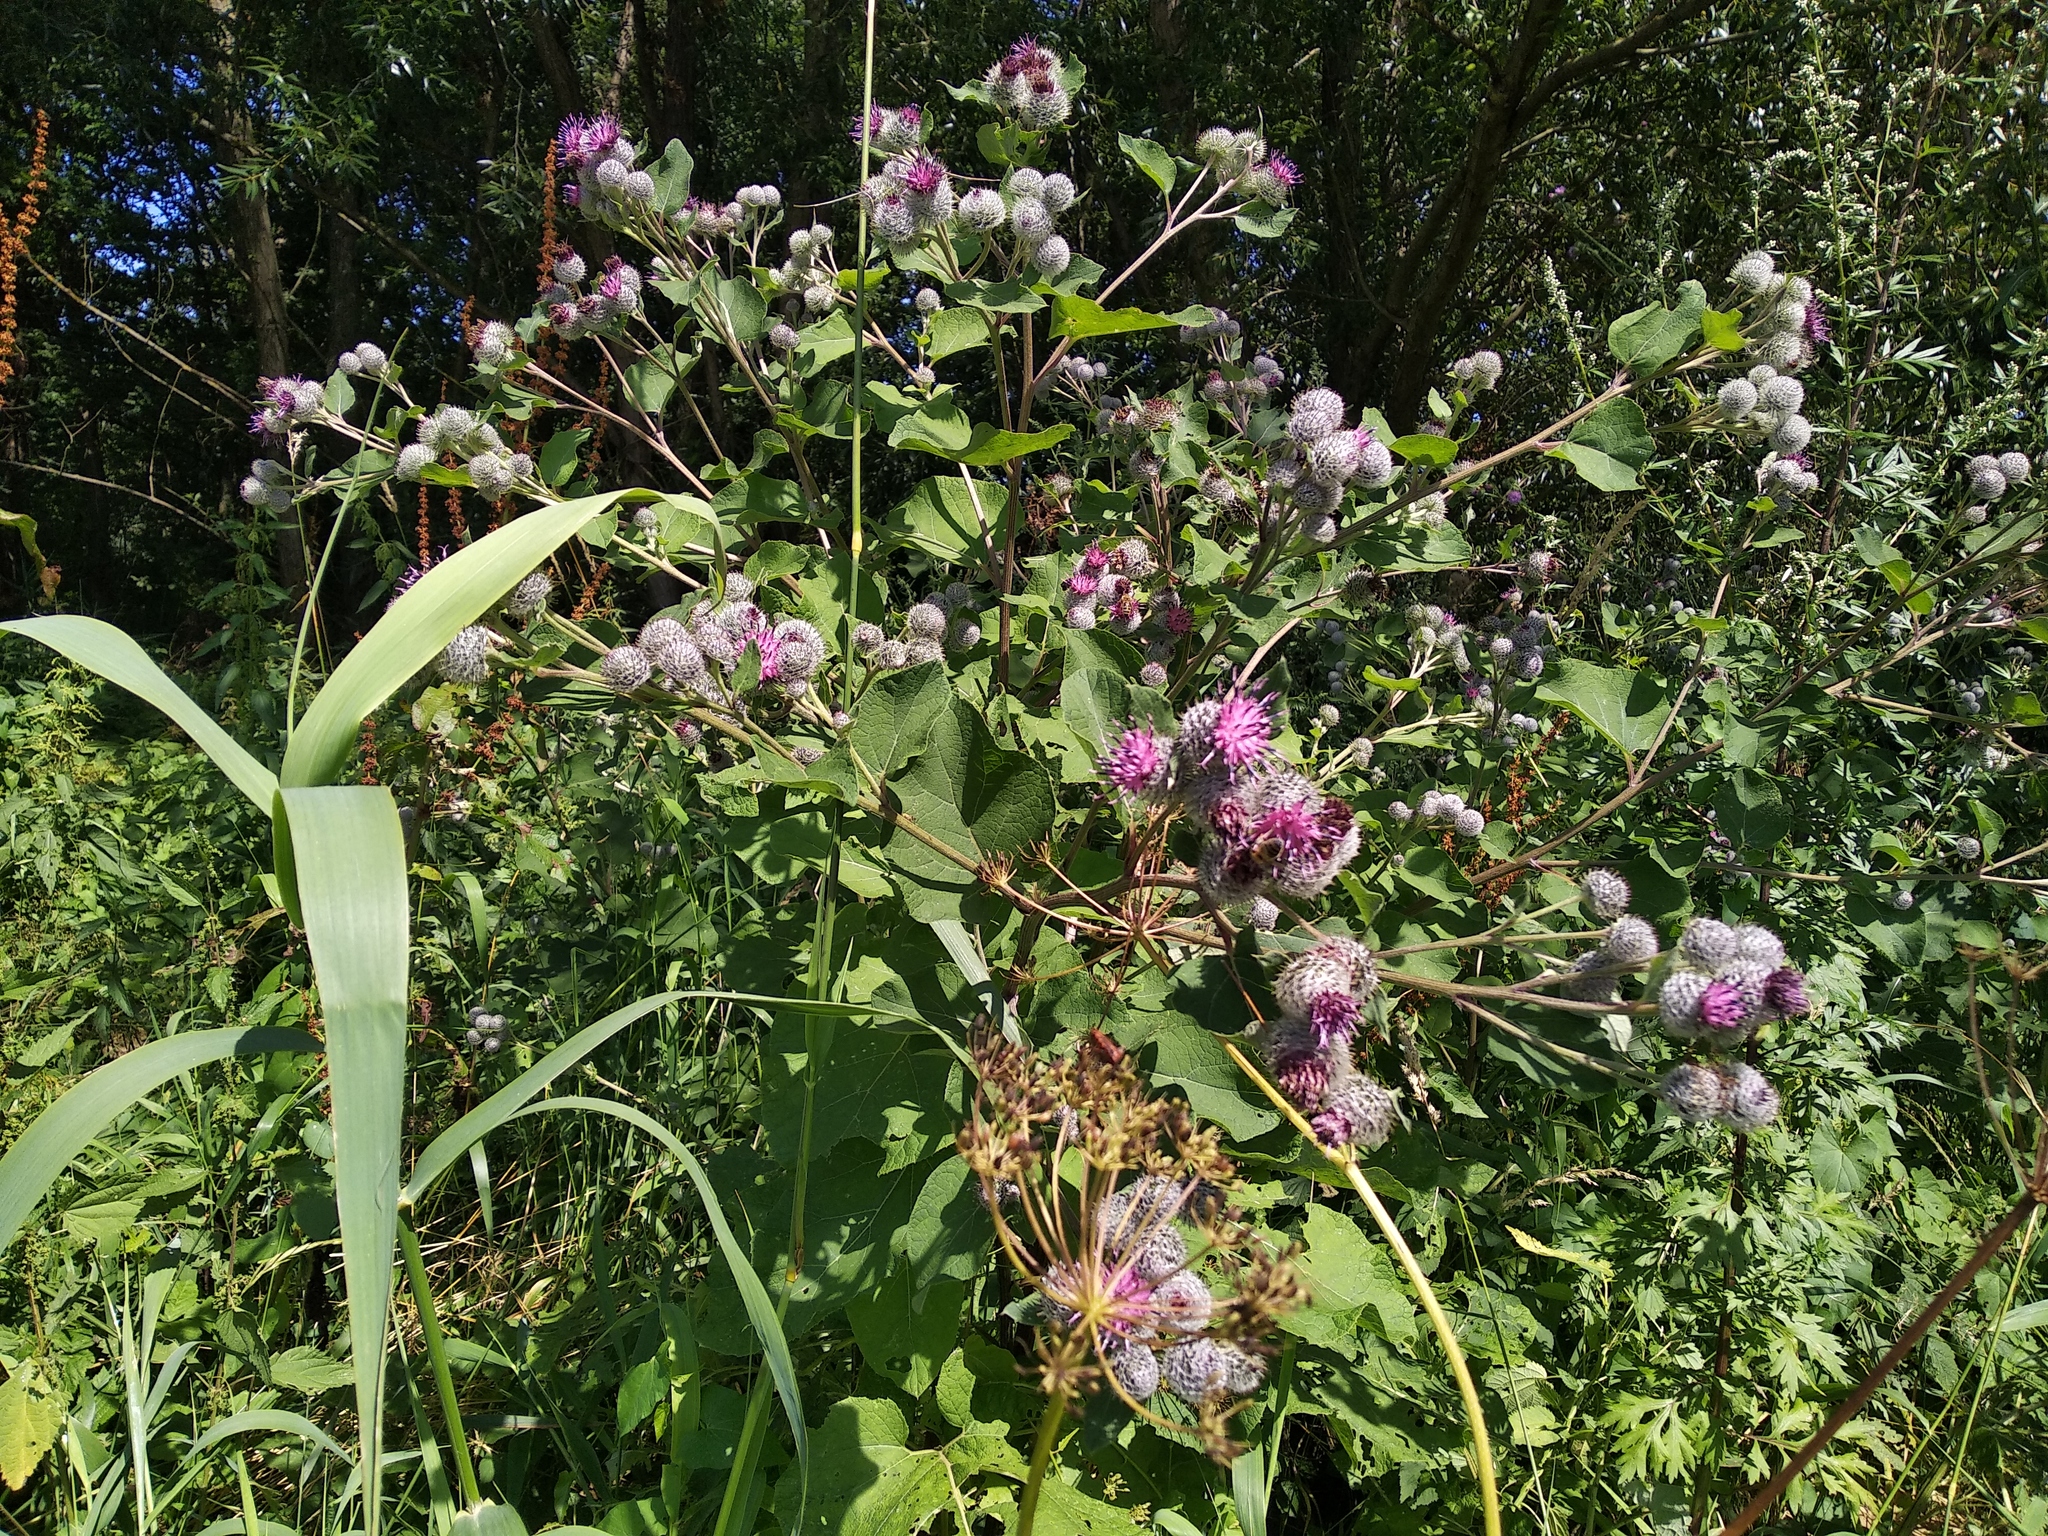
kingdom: Plantae
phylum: Tracheophyta
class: Magnoliopsida
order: Asterales
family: Asteraceae
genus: Arctium
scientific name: Arctium tomentosum
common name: Woolly burdock
